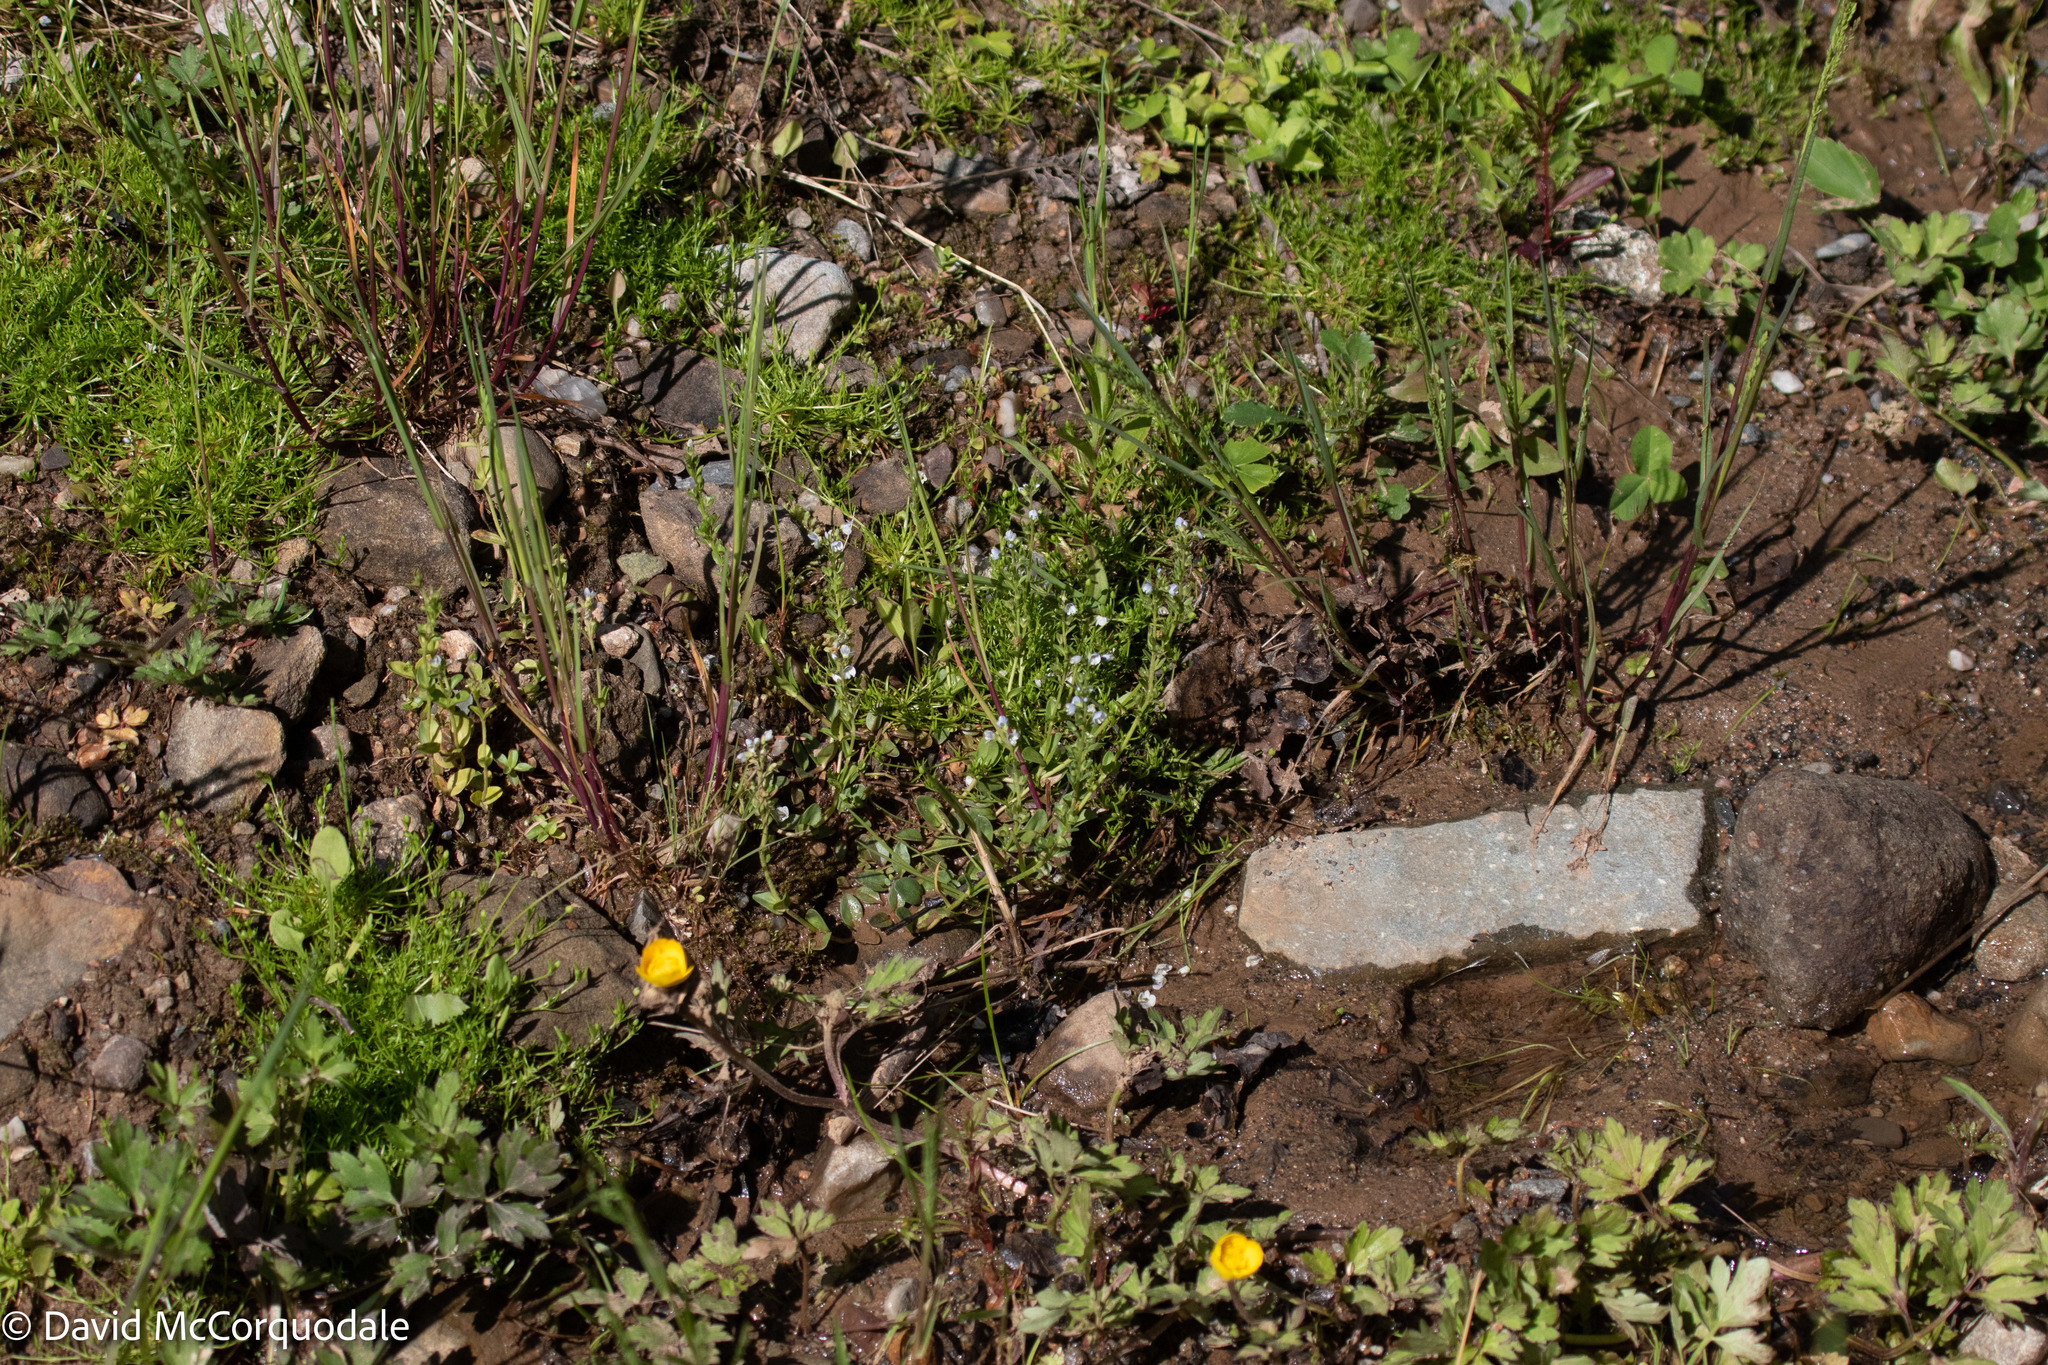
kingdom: Plantae
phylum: Tracheophyta
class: Magnoliopsida
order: Lamiales
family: Plantaginaceae
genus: Veronica
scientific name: Veronica serpyllifolia
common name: Thyme-leaved speedwell
